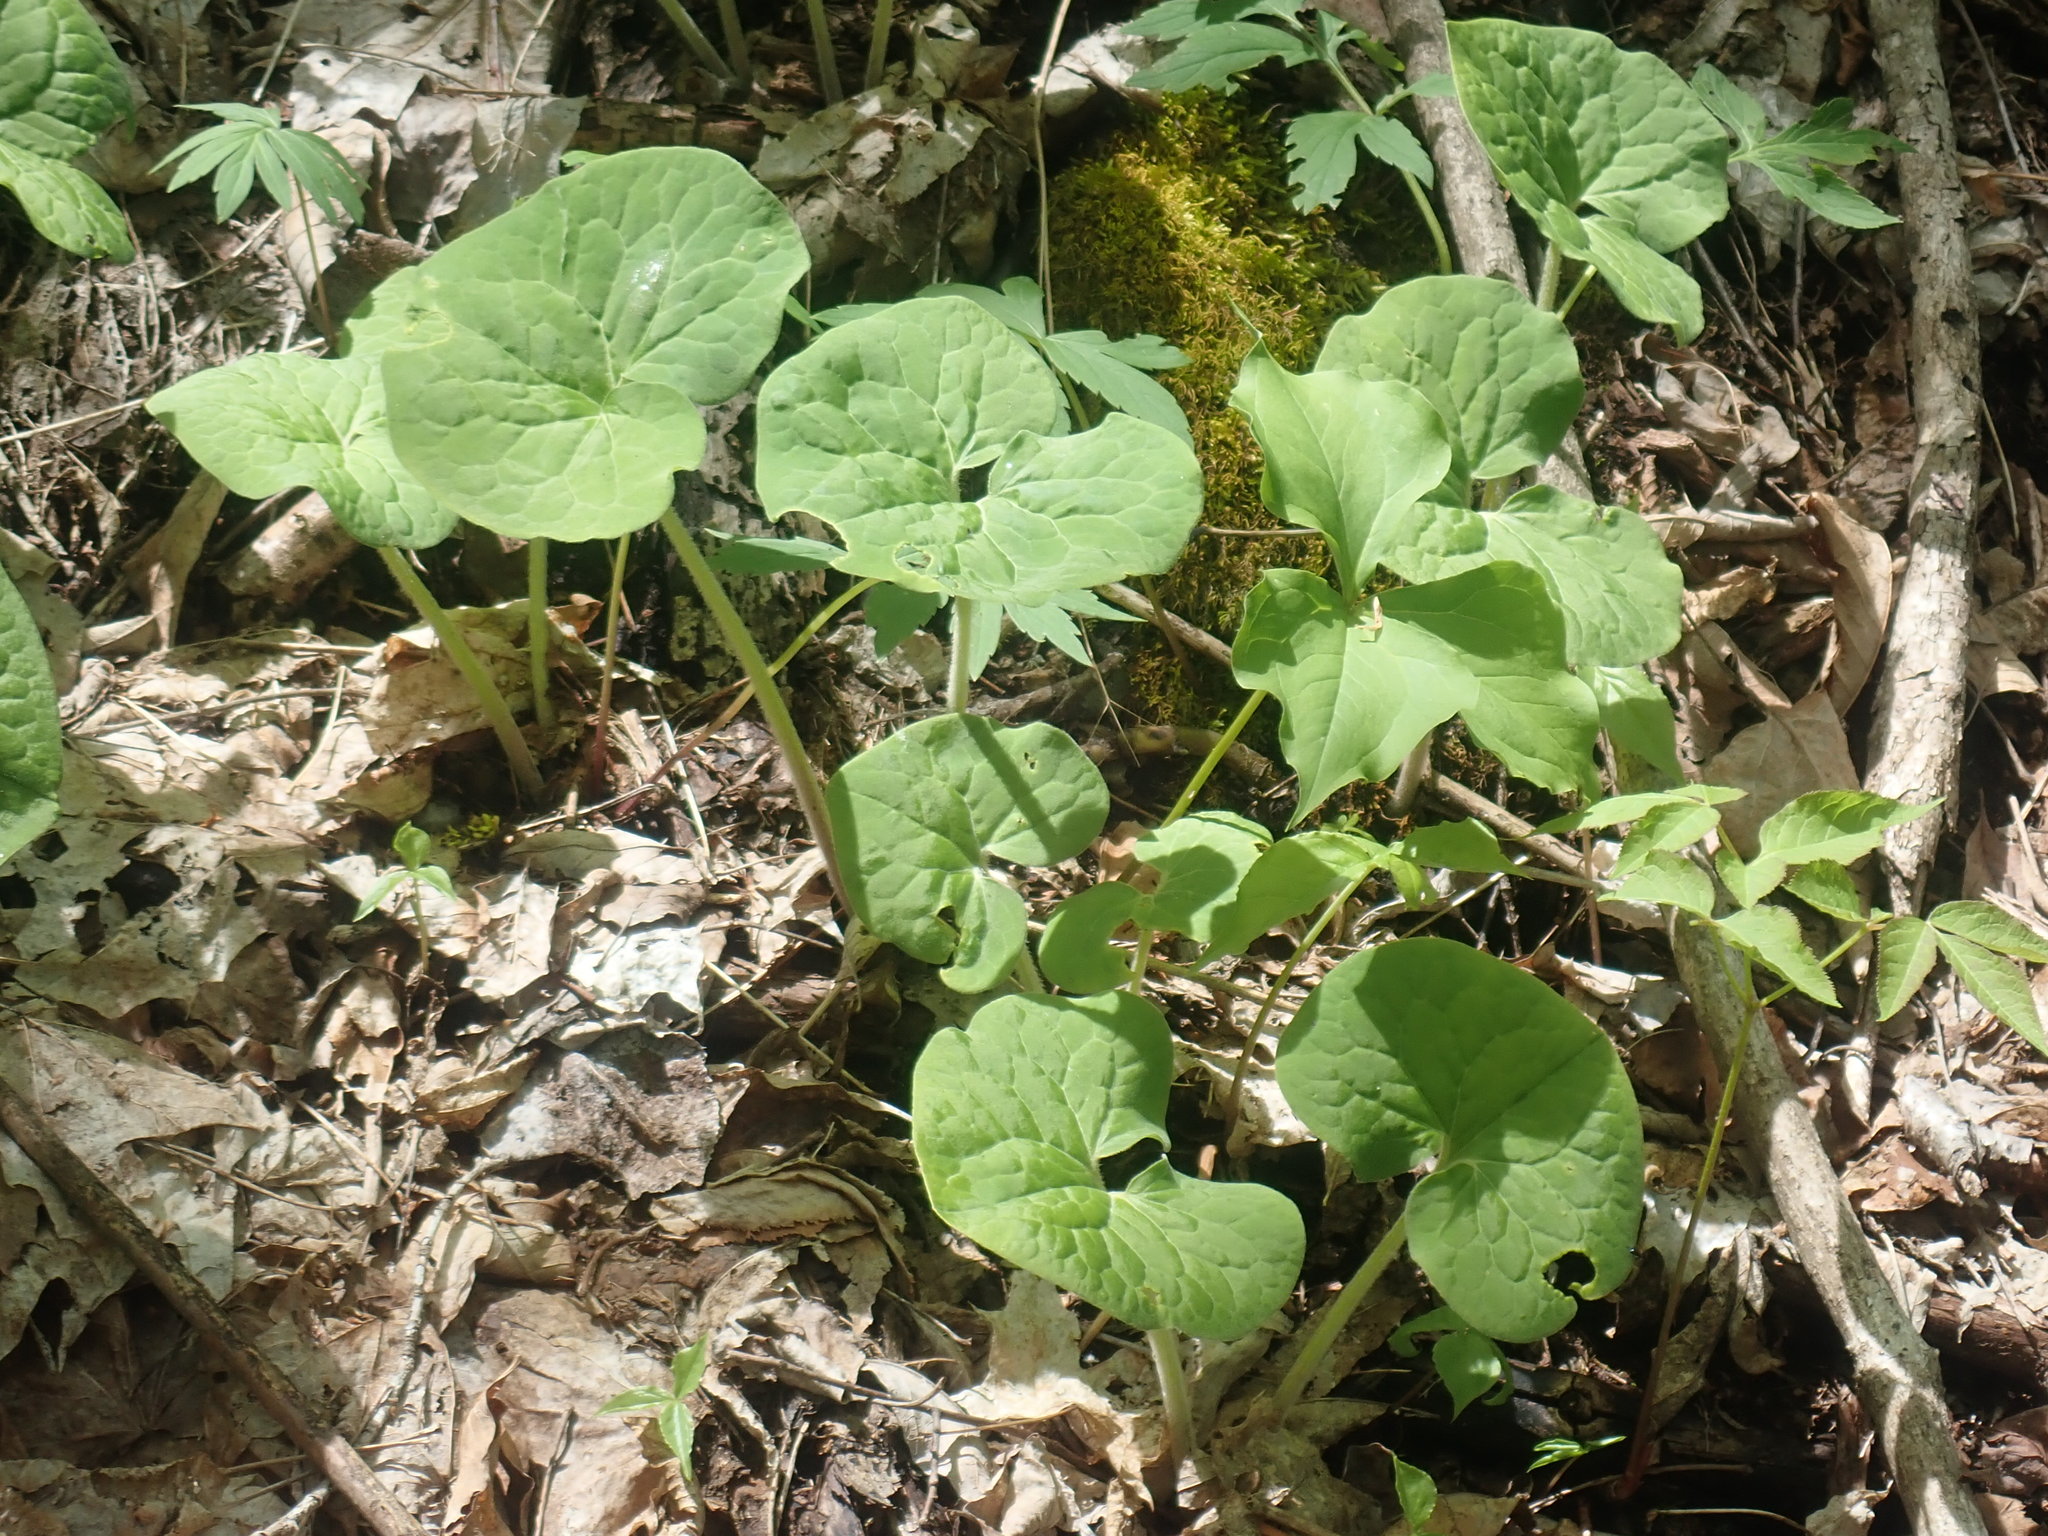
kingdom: Plantae
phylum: Tracheophyta
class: Magnoliopsida
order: Piperales
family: Aristolochiaceae
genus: Asarum
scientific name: Asarum canadense
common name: Wild ginger
